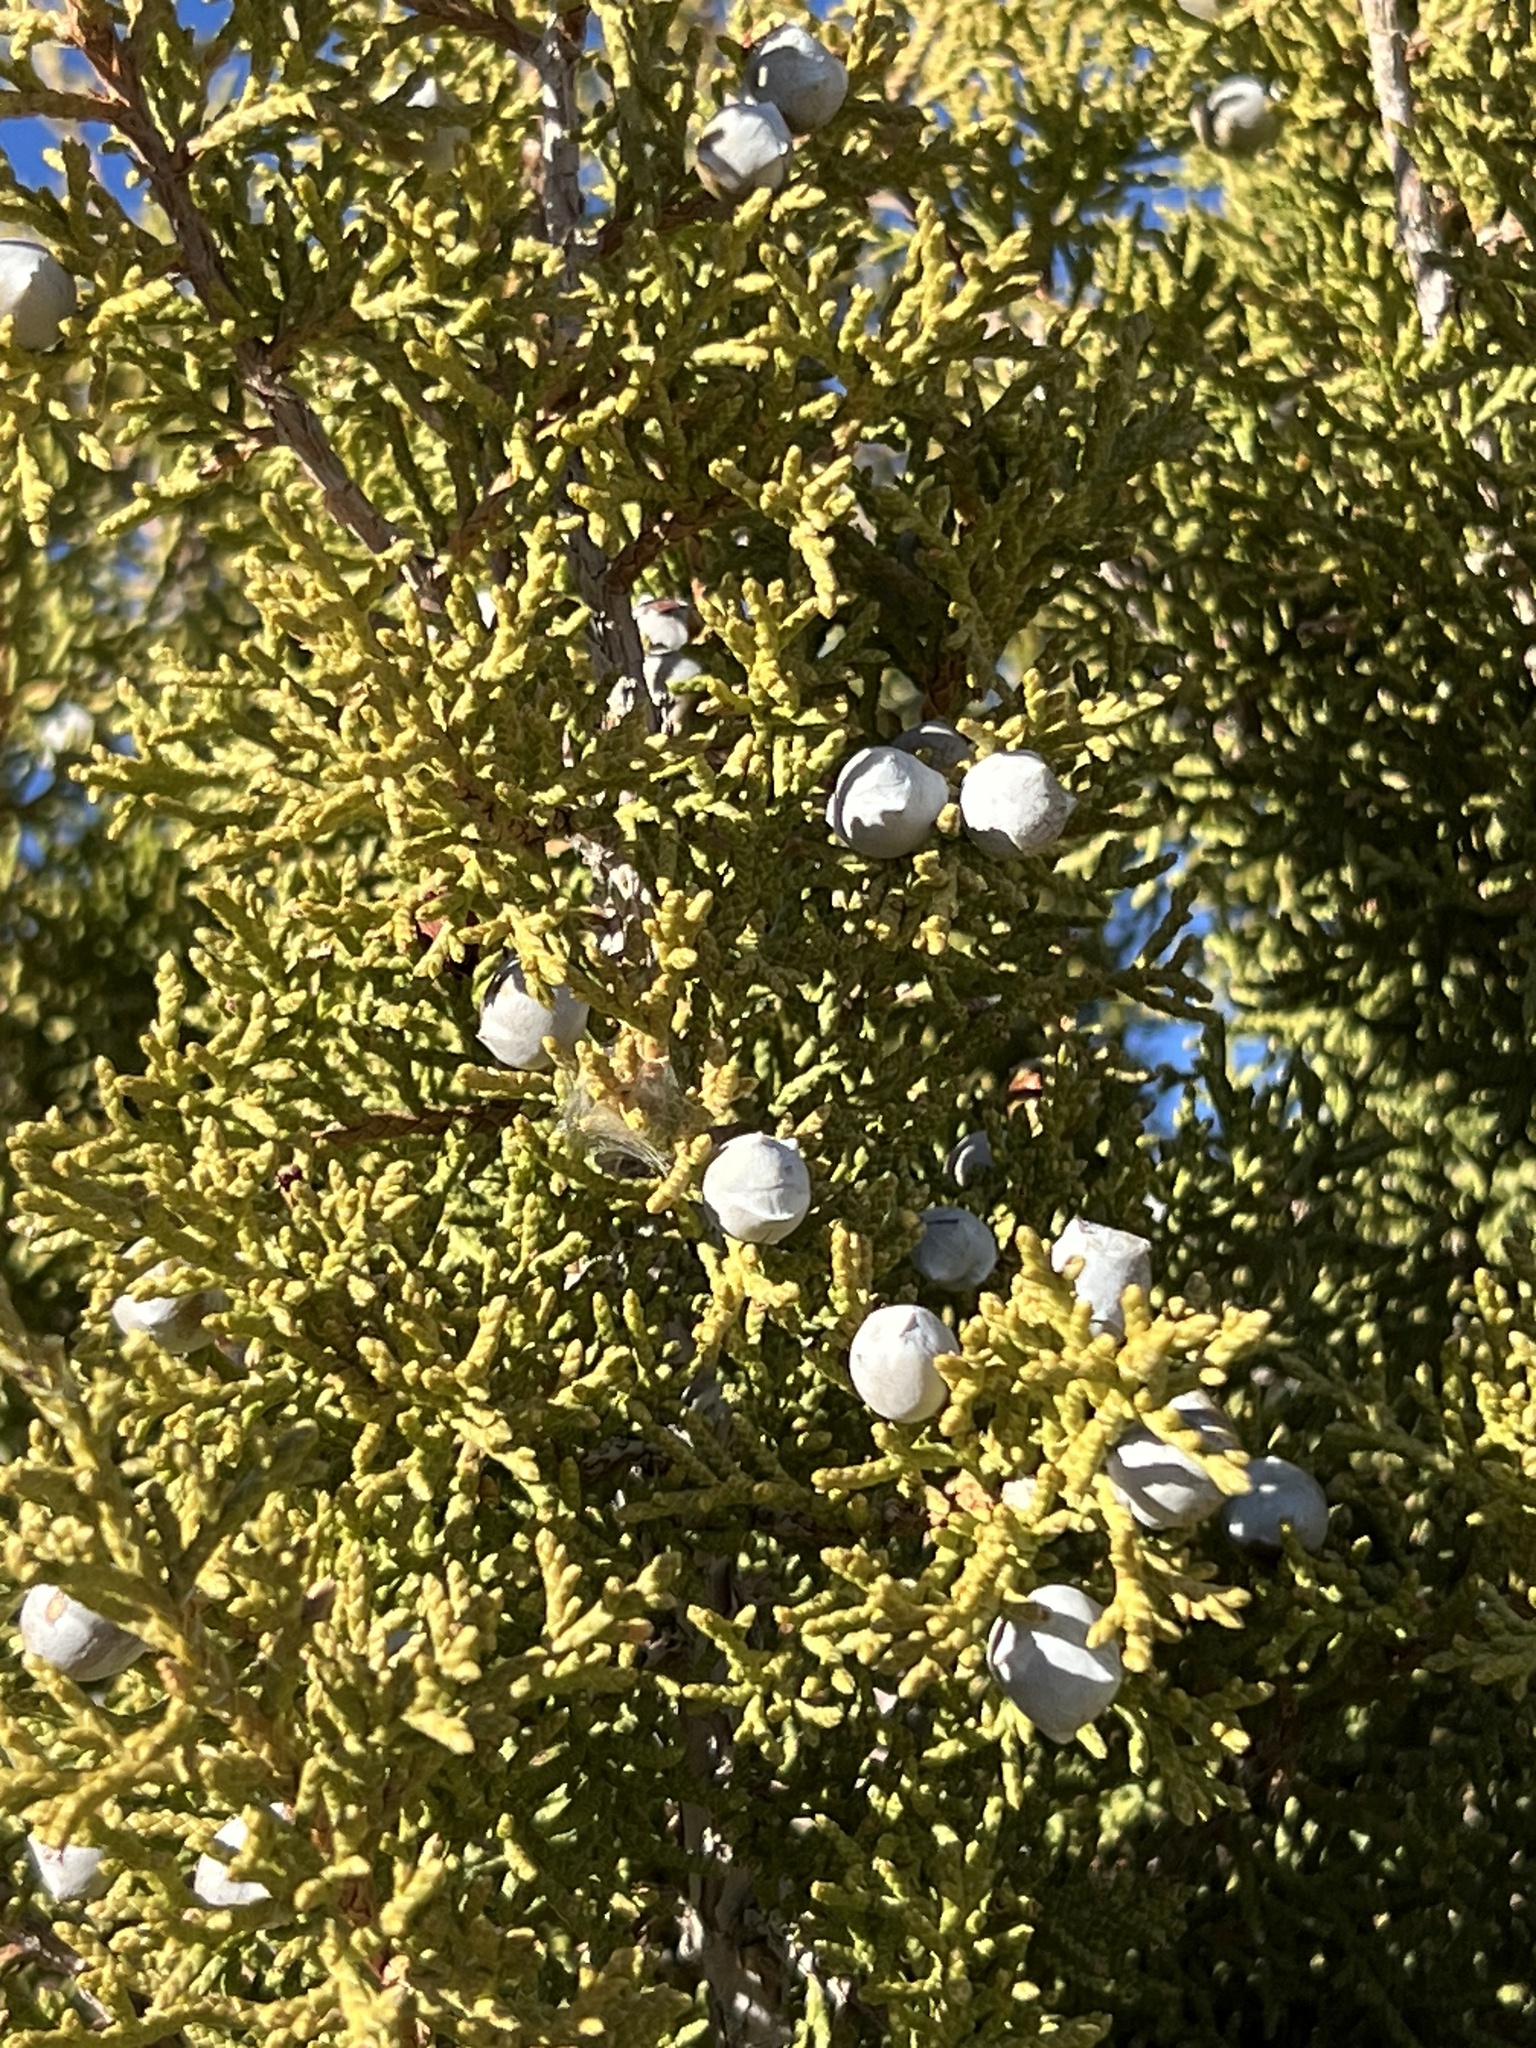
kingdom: Plantae
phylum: Tracheophyta
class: Pinopsida
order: Pinales
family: Cupressaceae
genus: Juniperus
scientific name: Juniperus osteosperma
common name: Utah juniper
